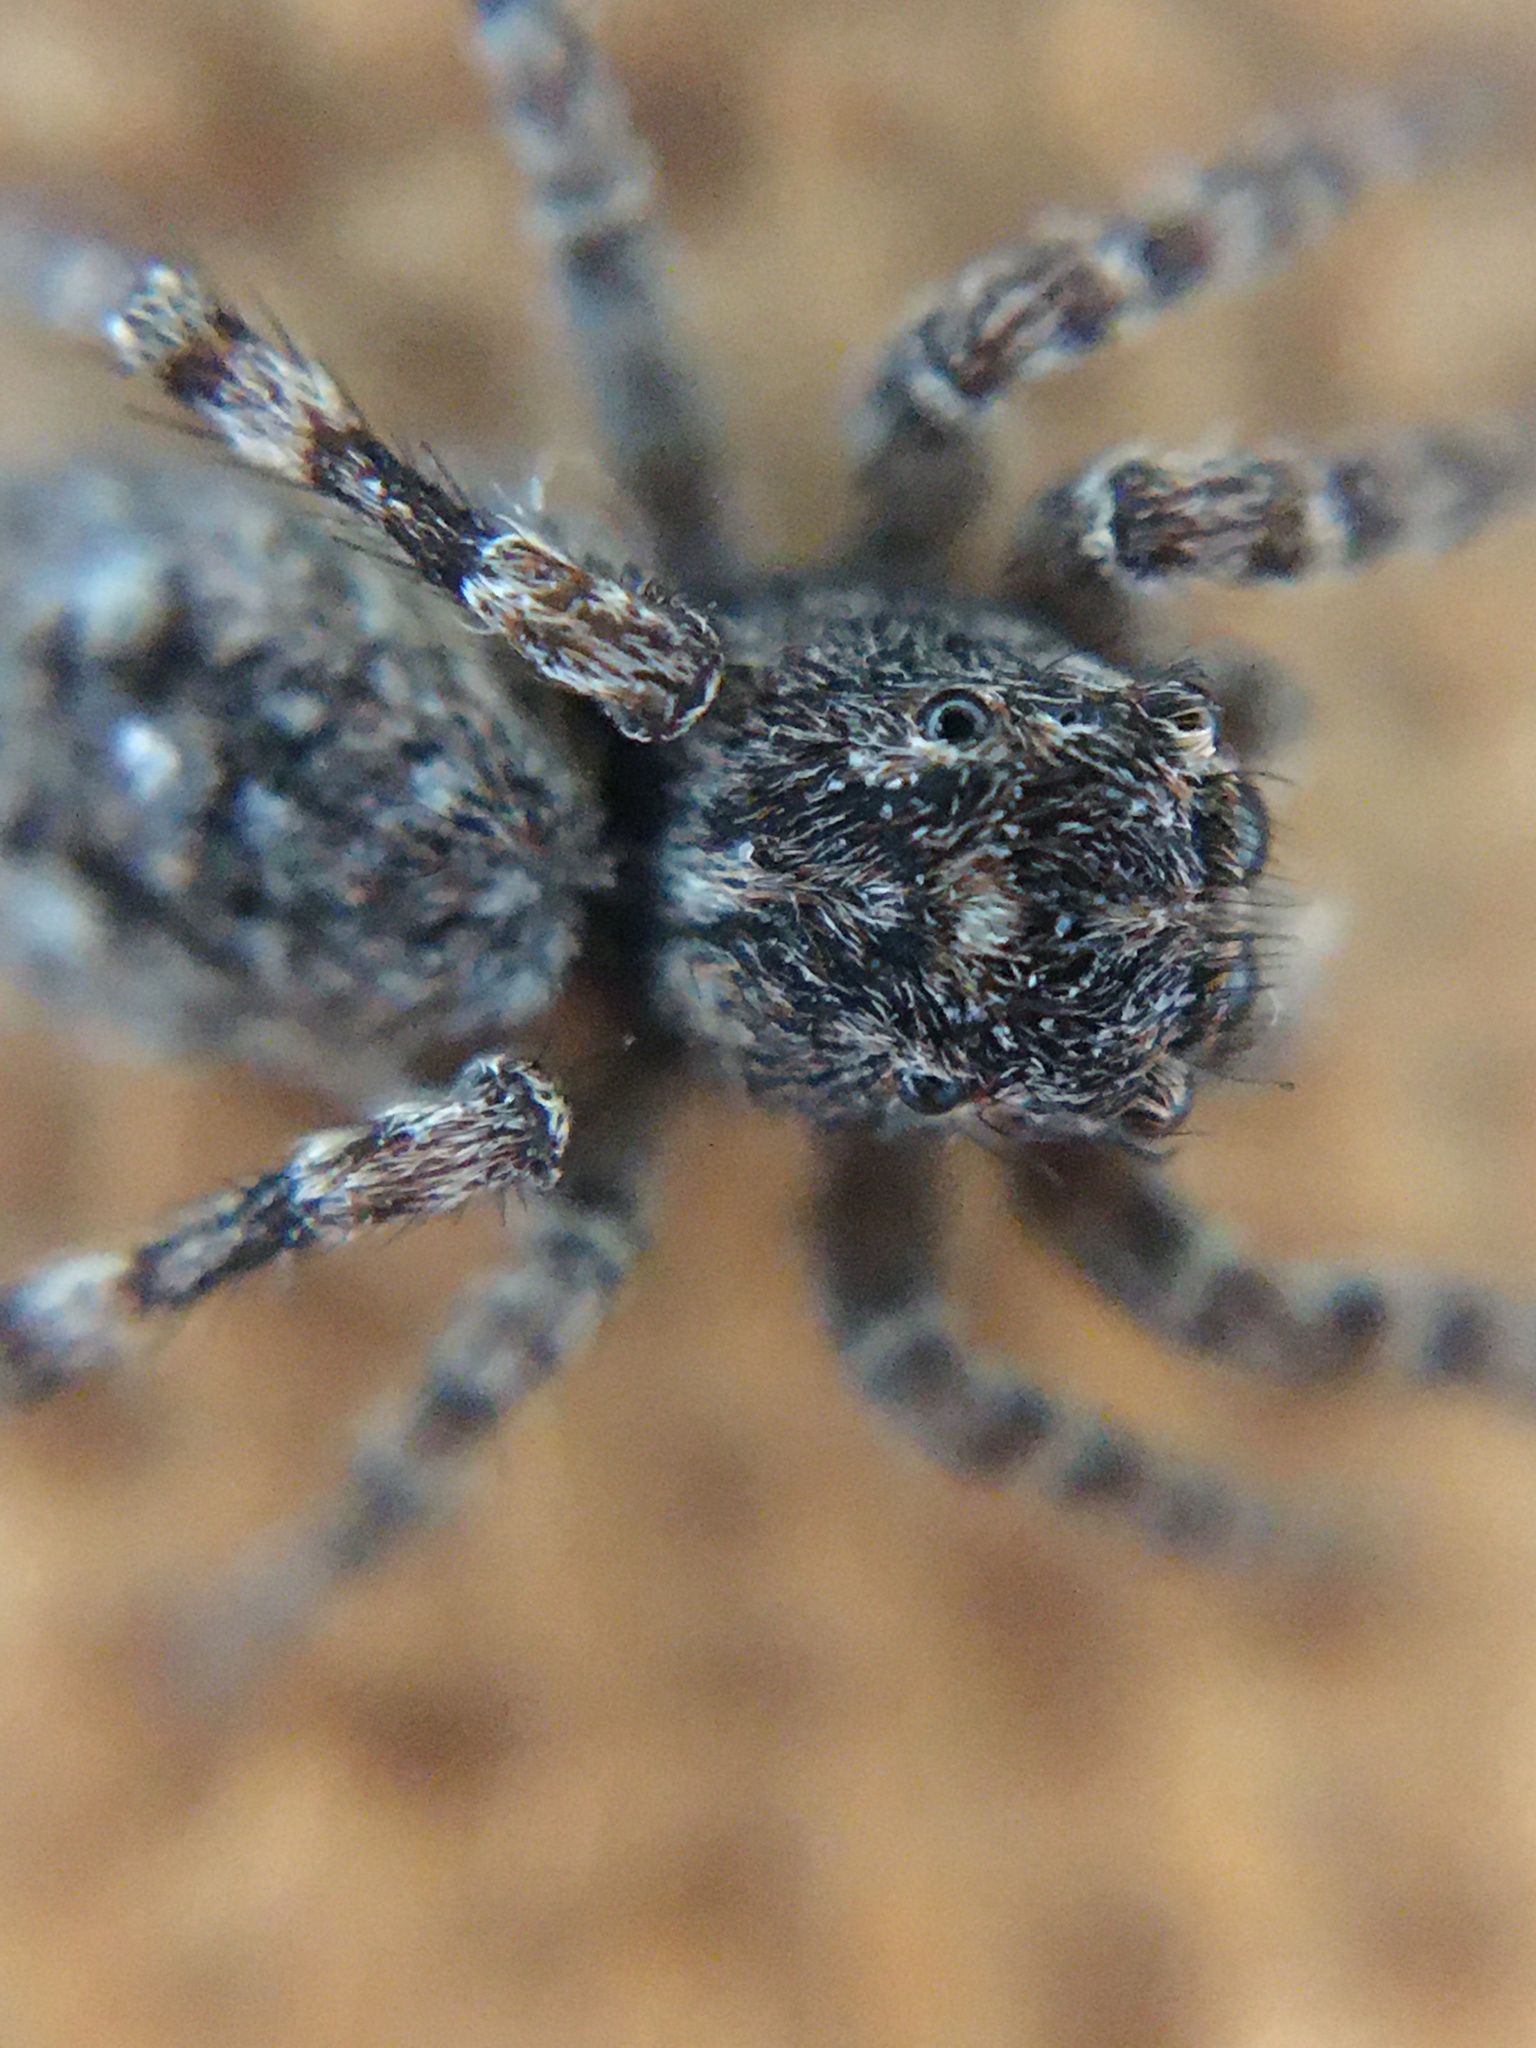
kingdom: Animalia
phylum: Arthropoda
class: Arachnida
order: Araneae
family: Salticidae
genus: Attulus
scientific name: Attulus pubescens
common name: Jumping spider
